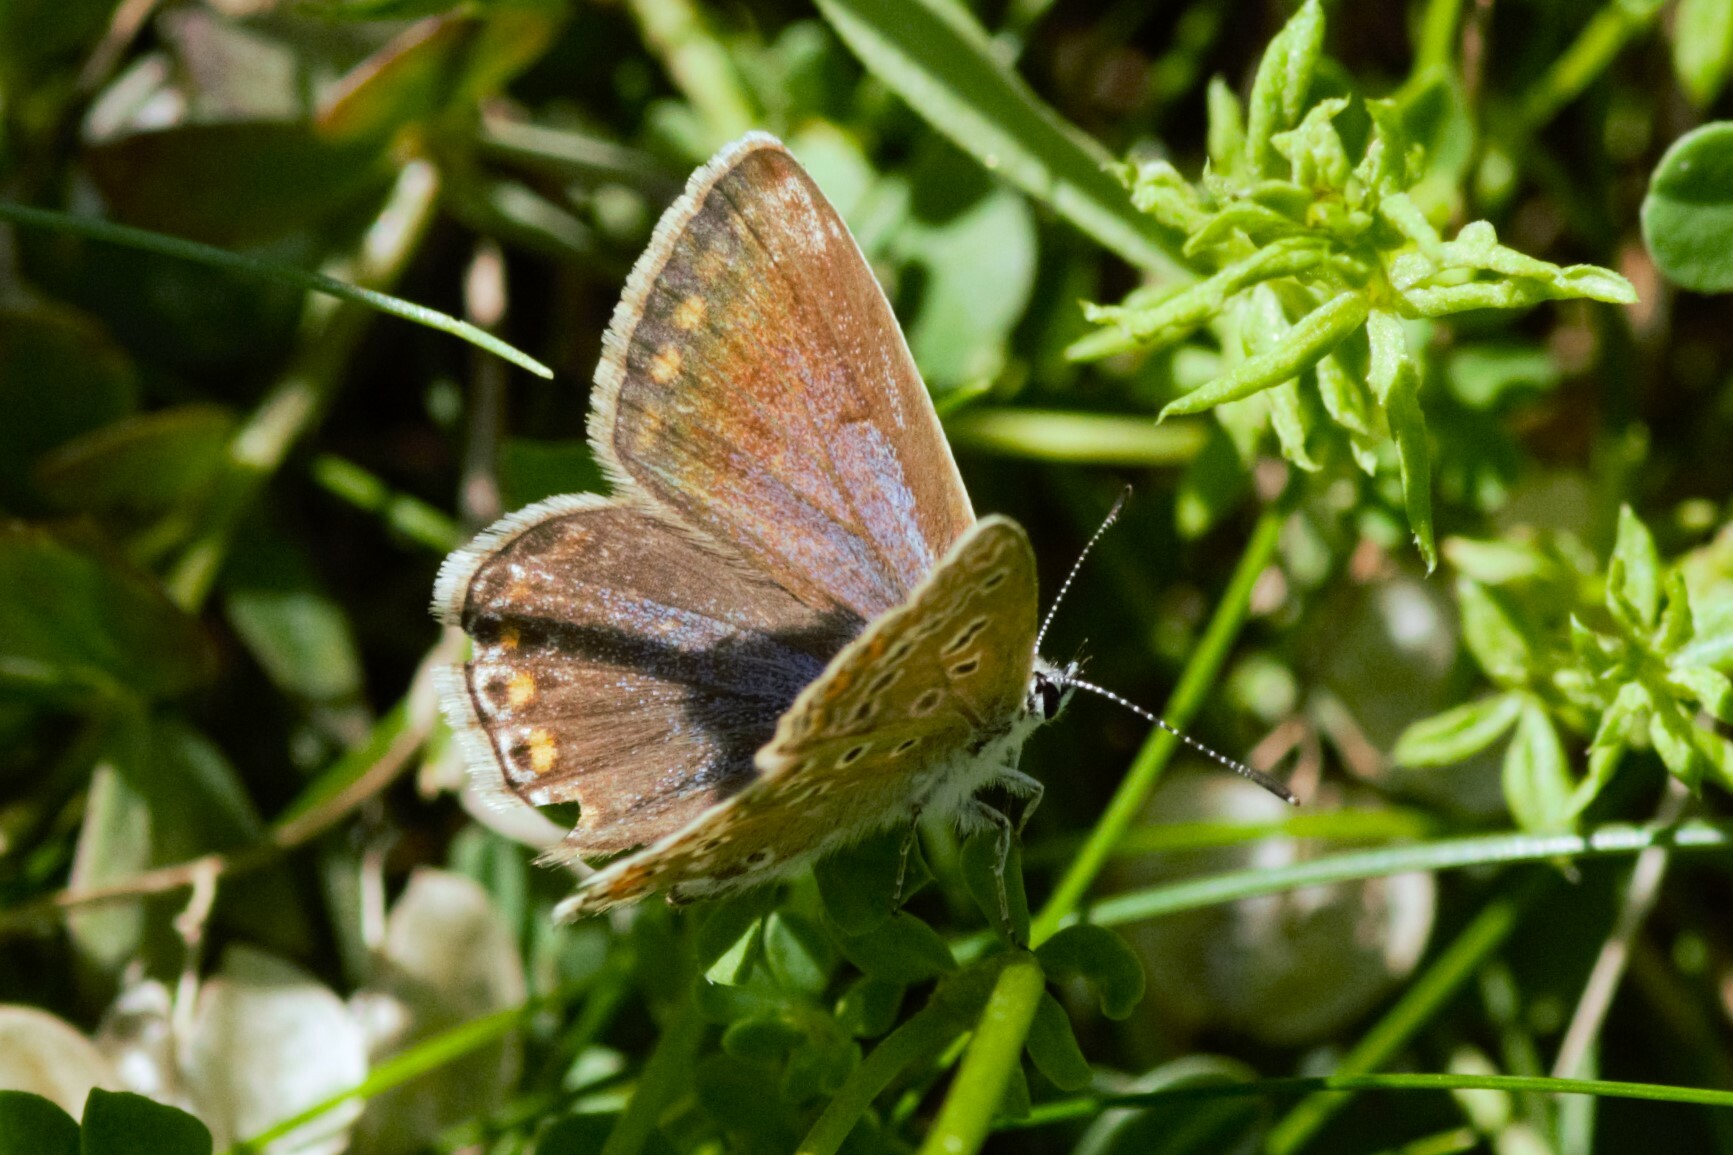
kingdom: Animalia
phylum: Arthropoda
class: Insecta
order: Lepidoptera
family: Lycaenidae
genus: Polyommatus
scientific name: Polyommatus icarus
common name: Common blue
